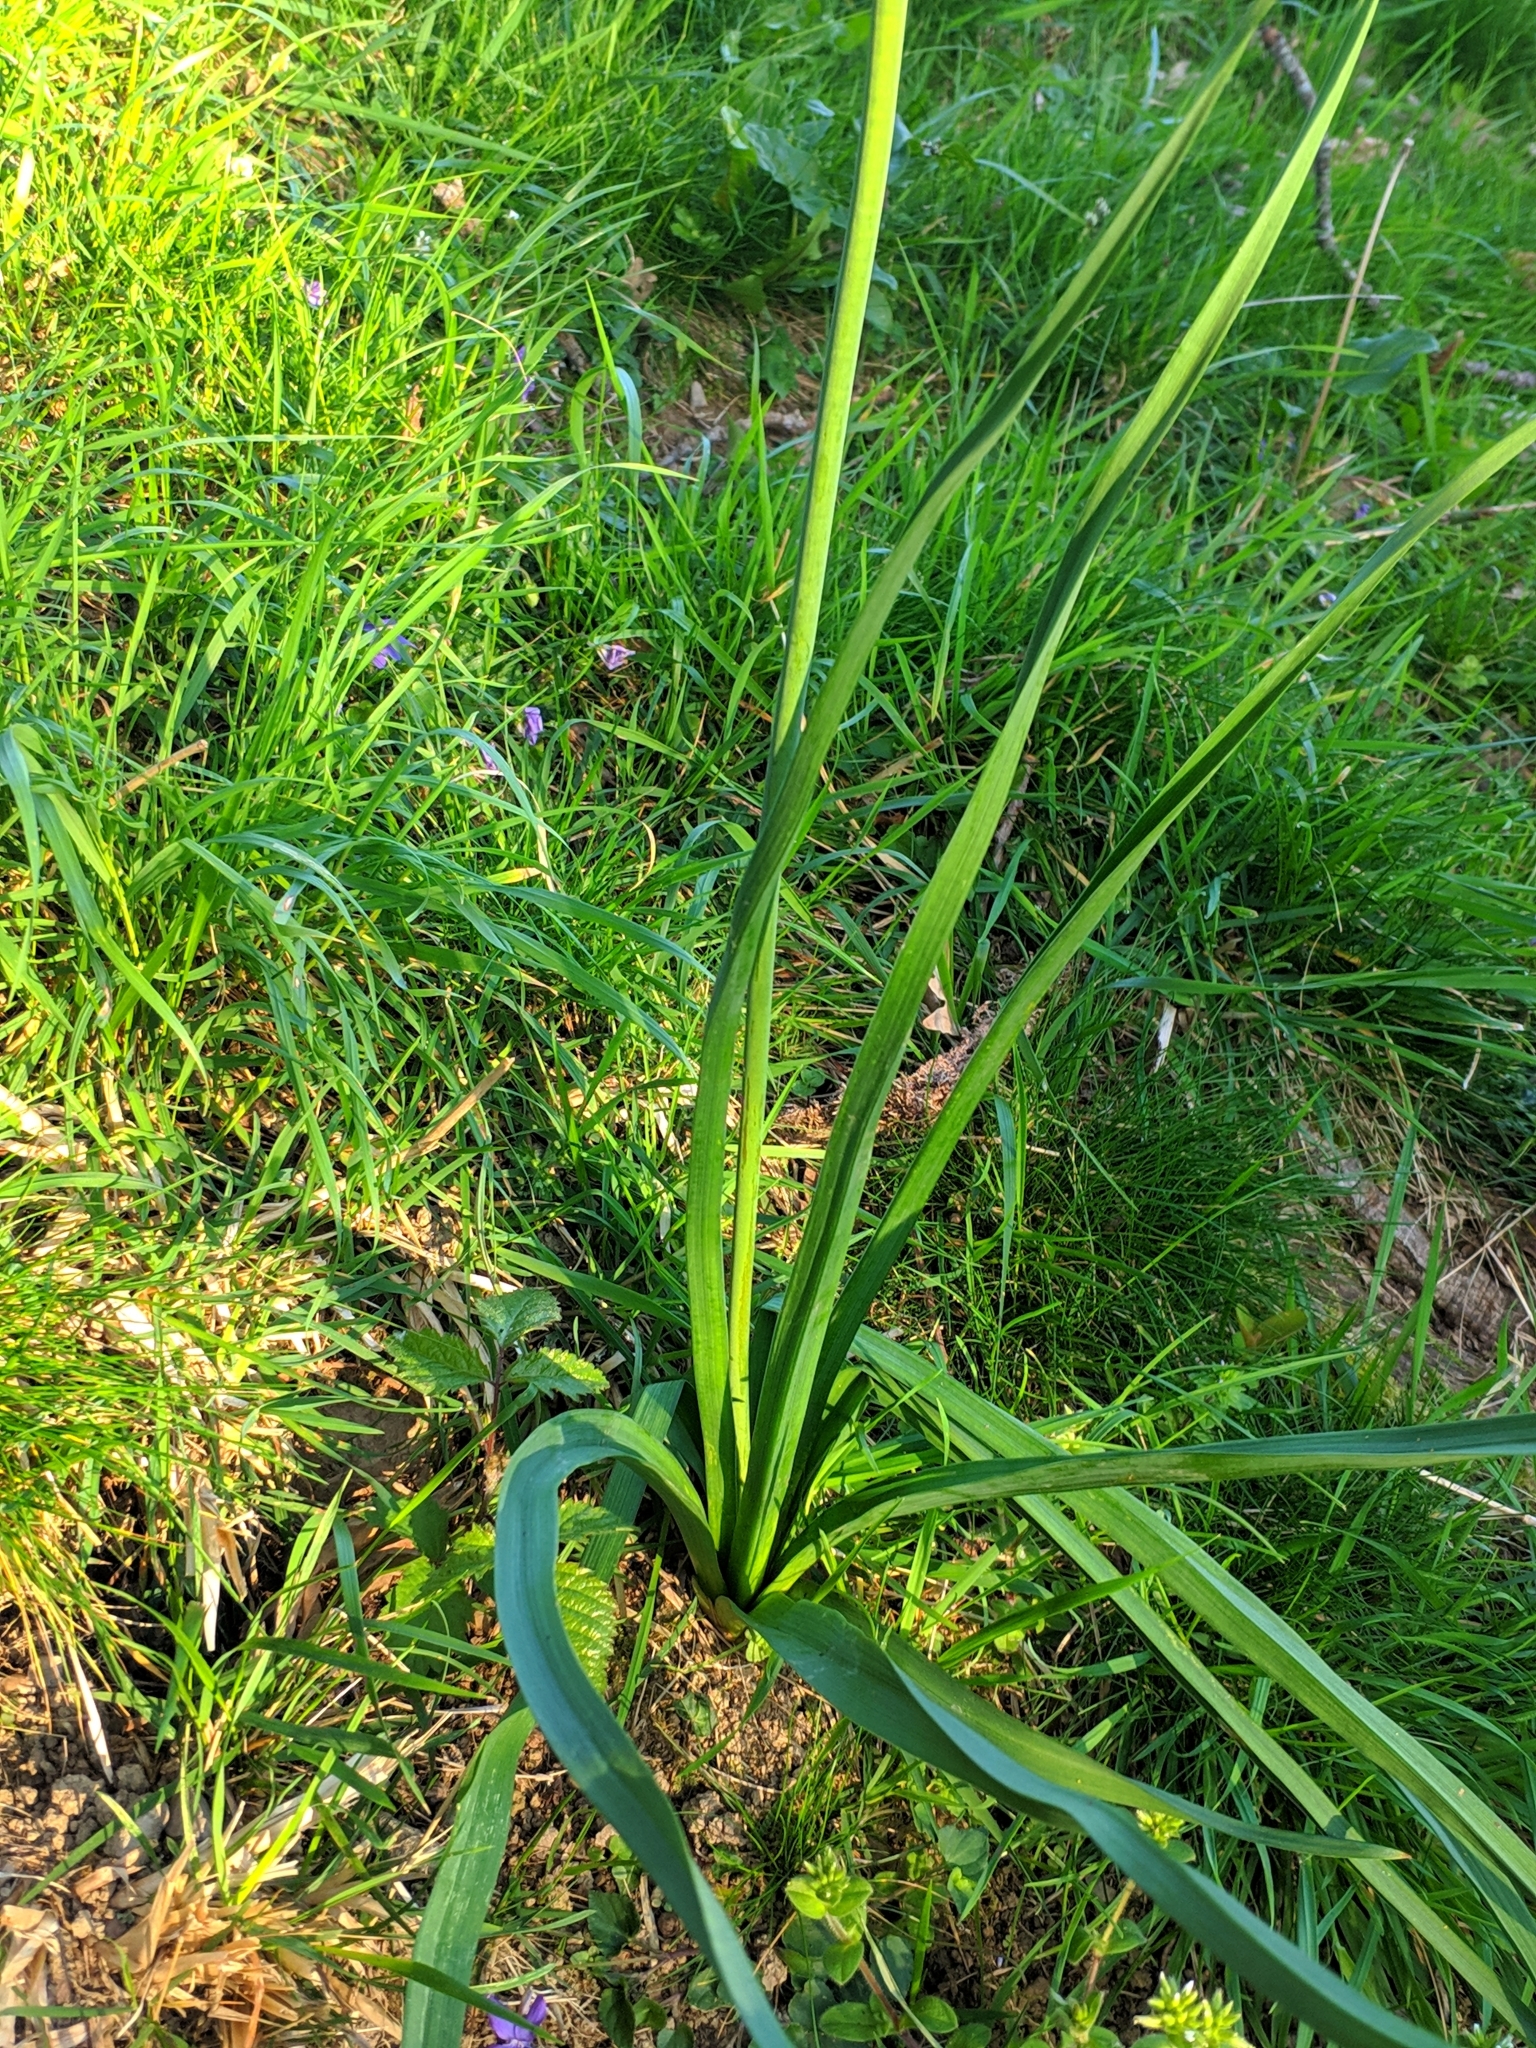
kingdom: Plantae
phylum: Tracheophyta
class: Liliopsida
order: Asparagales
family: Asphodelaceae
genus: Asphodelus
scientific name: Asphodelus albus
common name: White asphodel
